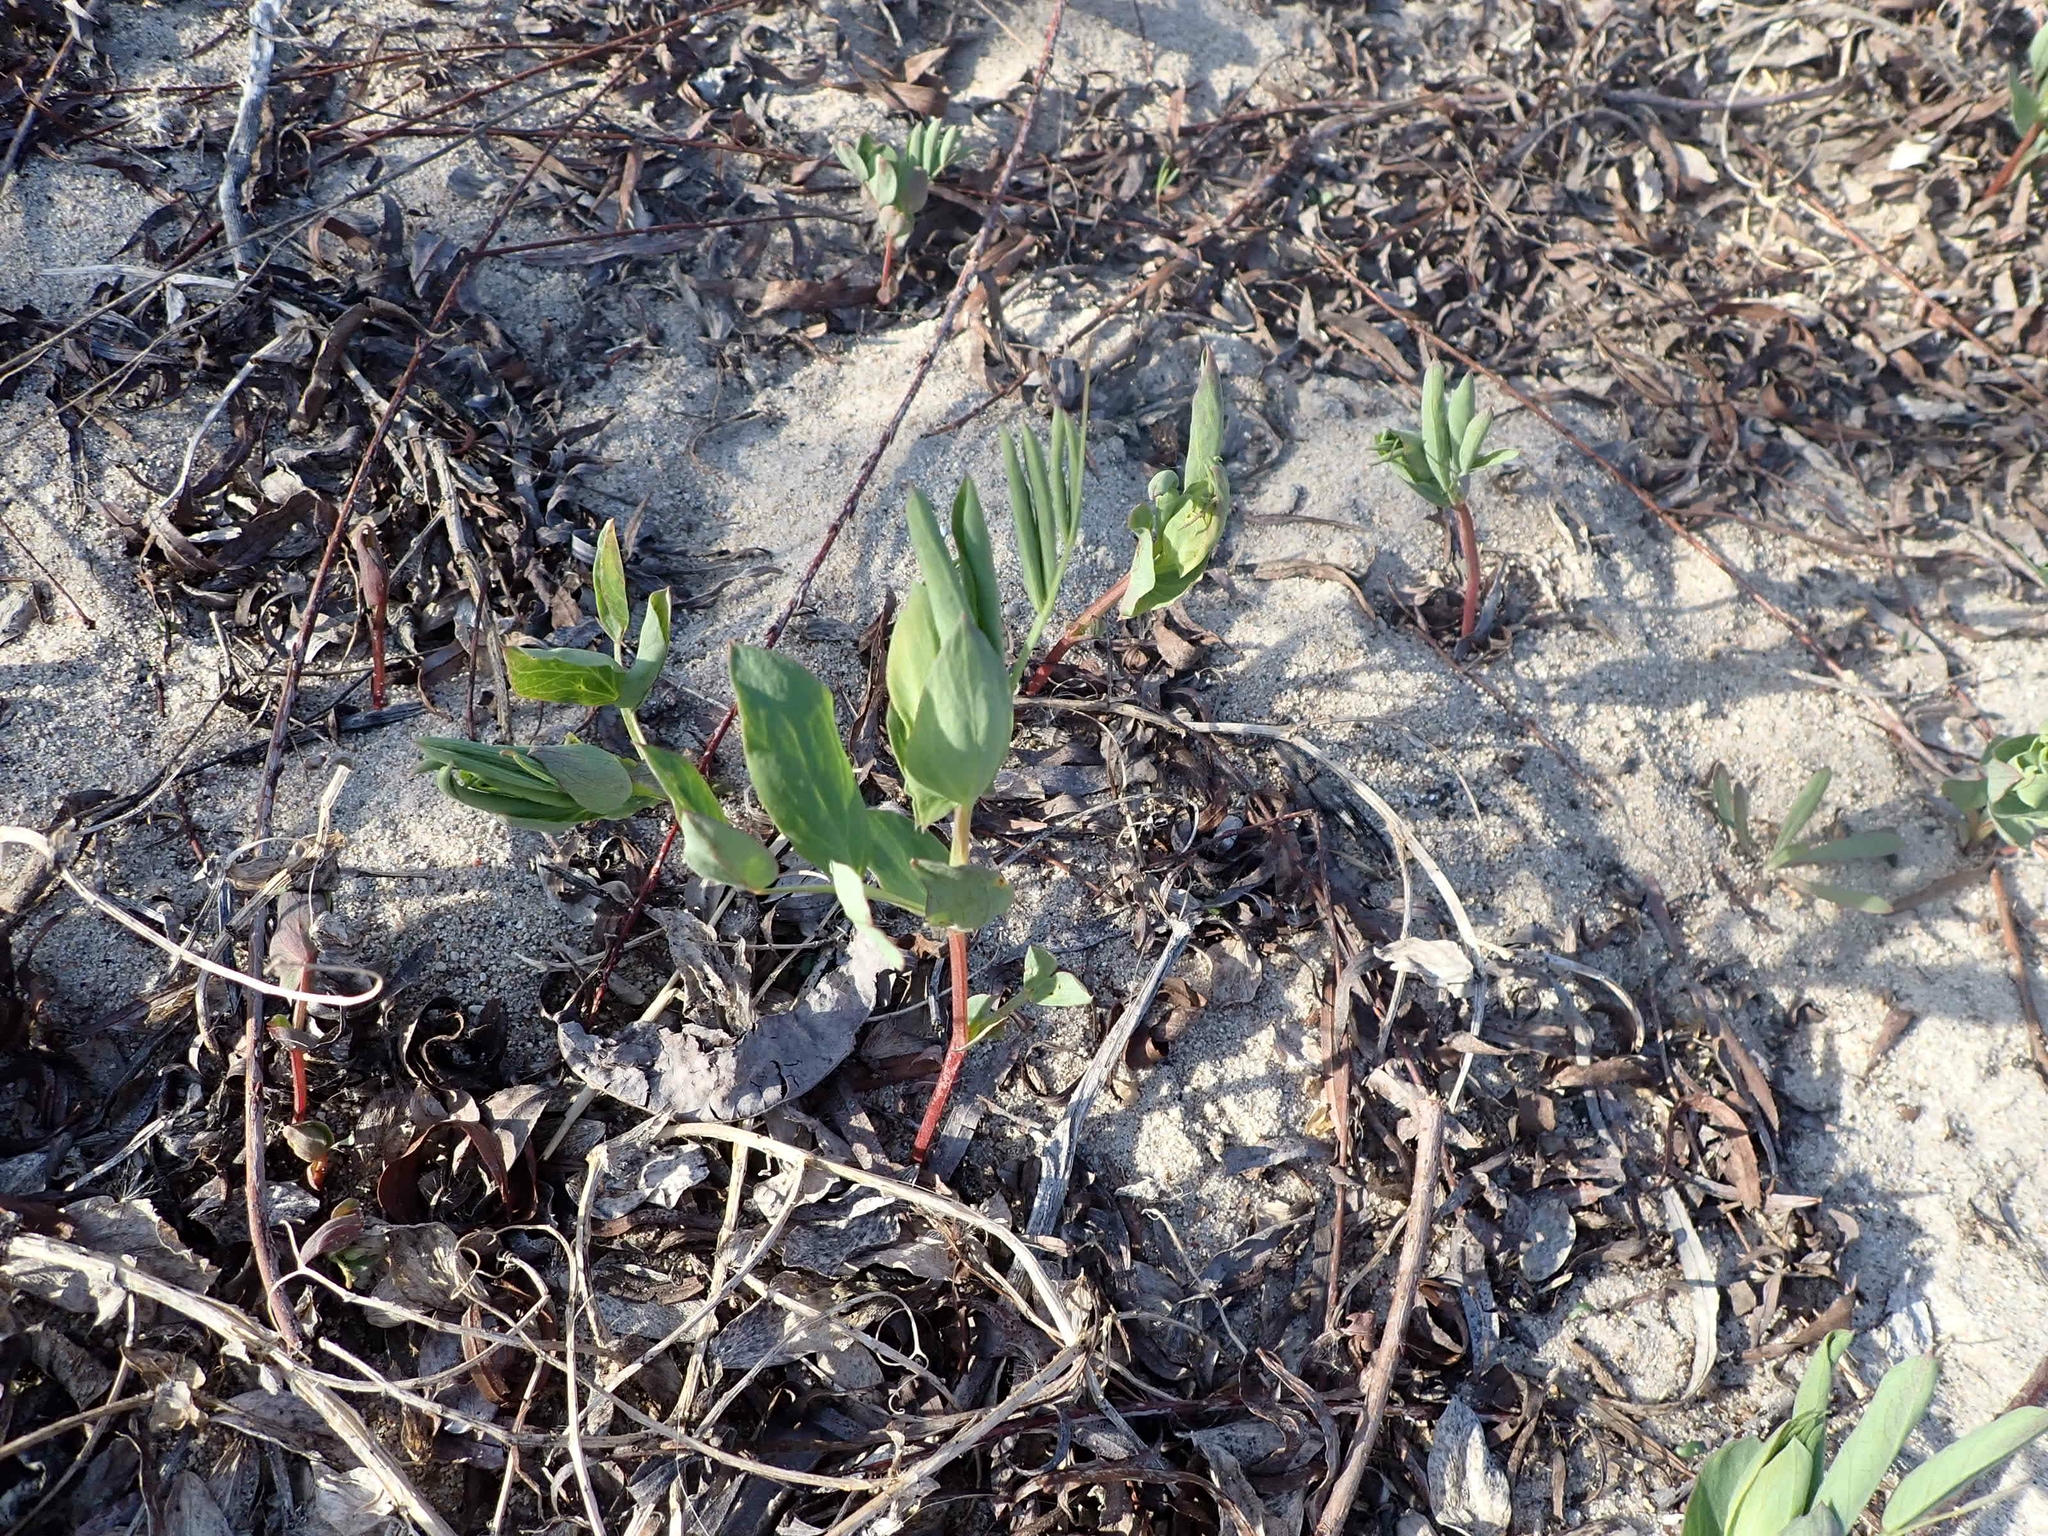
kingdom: Plantae
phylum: Tracheophyta
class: Magnoliopsida
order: Fabales
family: Fabaceae
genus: Lathyrus
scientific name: Lathyrus japonicus
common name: Sea pea
